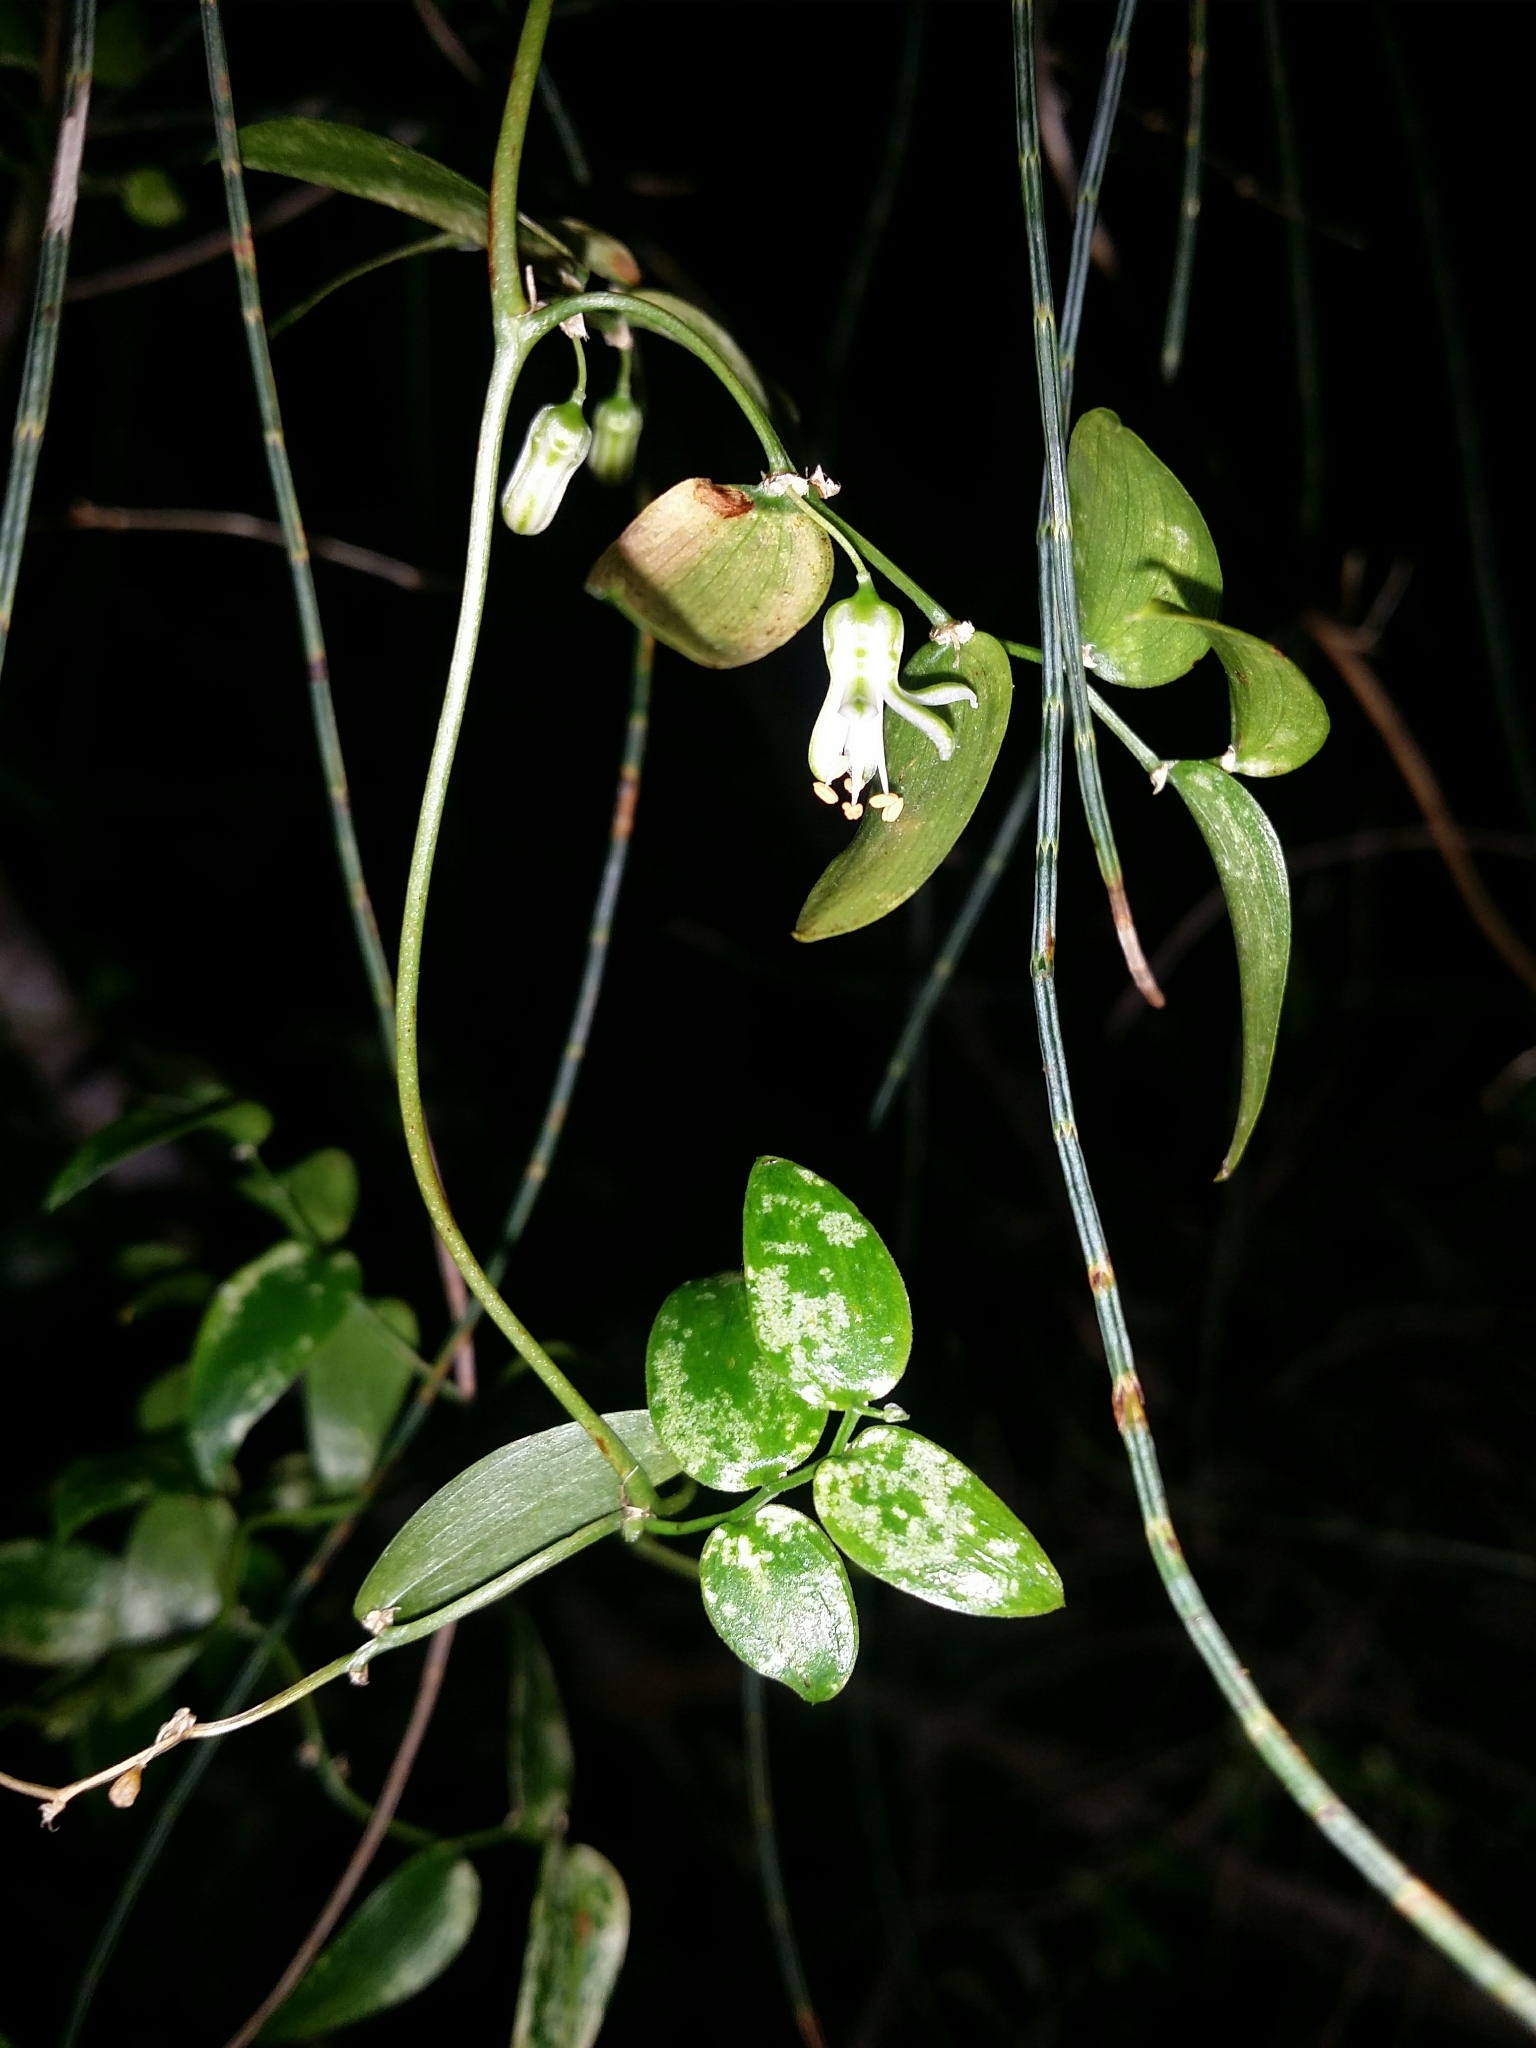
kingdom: Plantae
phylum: Tracheophyta
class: Liliopsida
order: Asparagales
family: Asparagaceae
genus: Asparagus
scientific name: Asparagus asparagoides
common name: African asparagus fern
